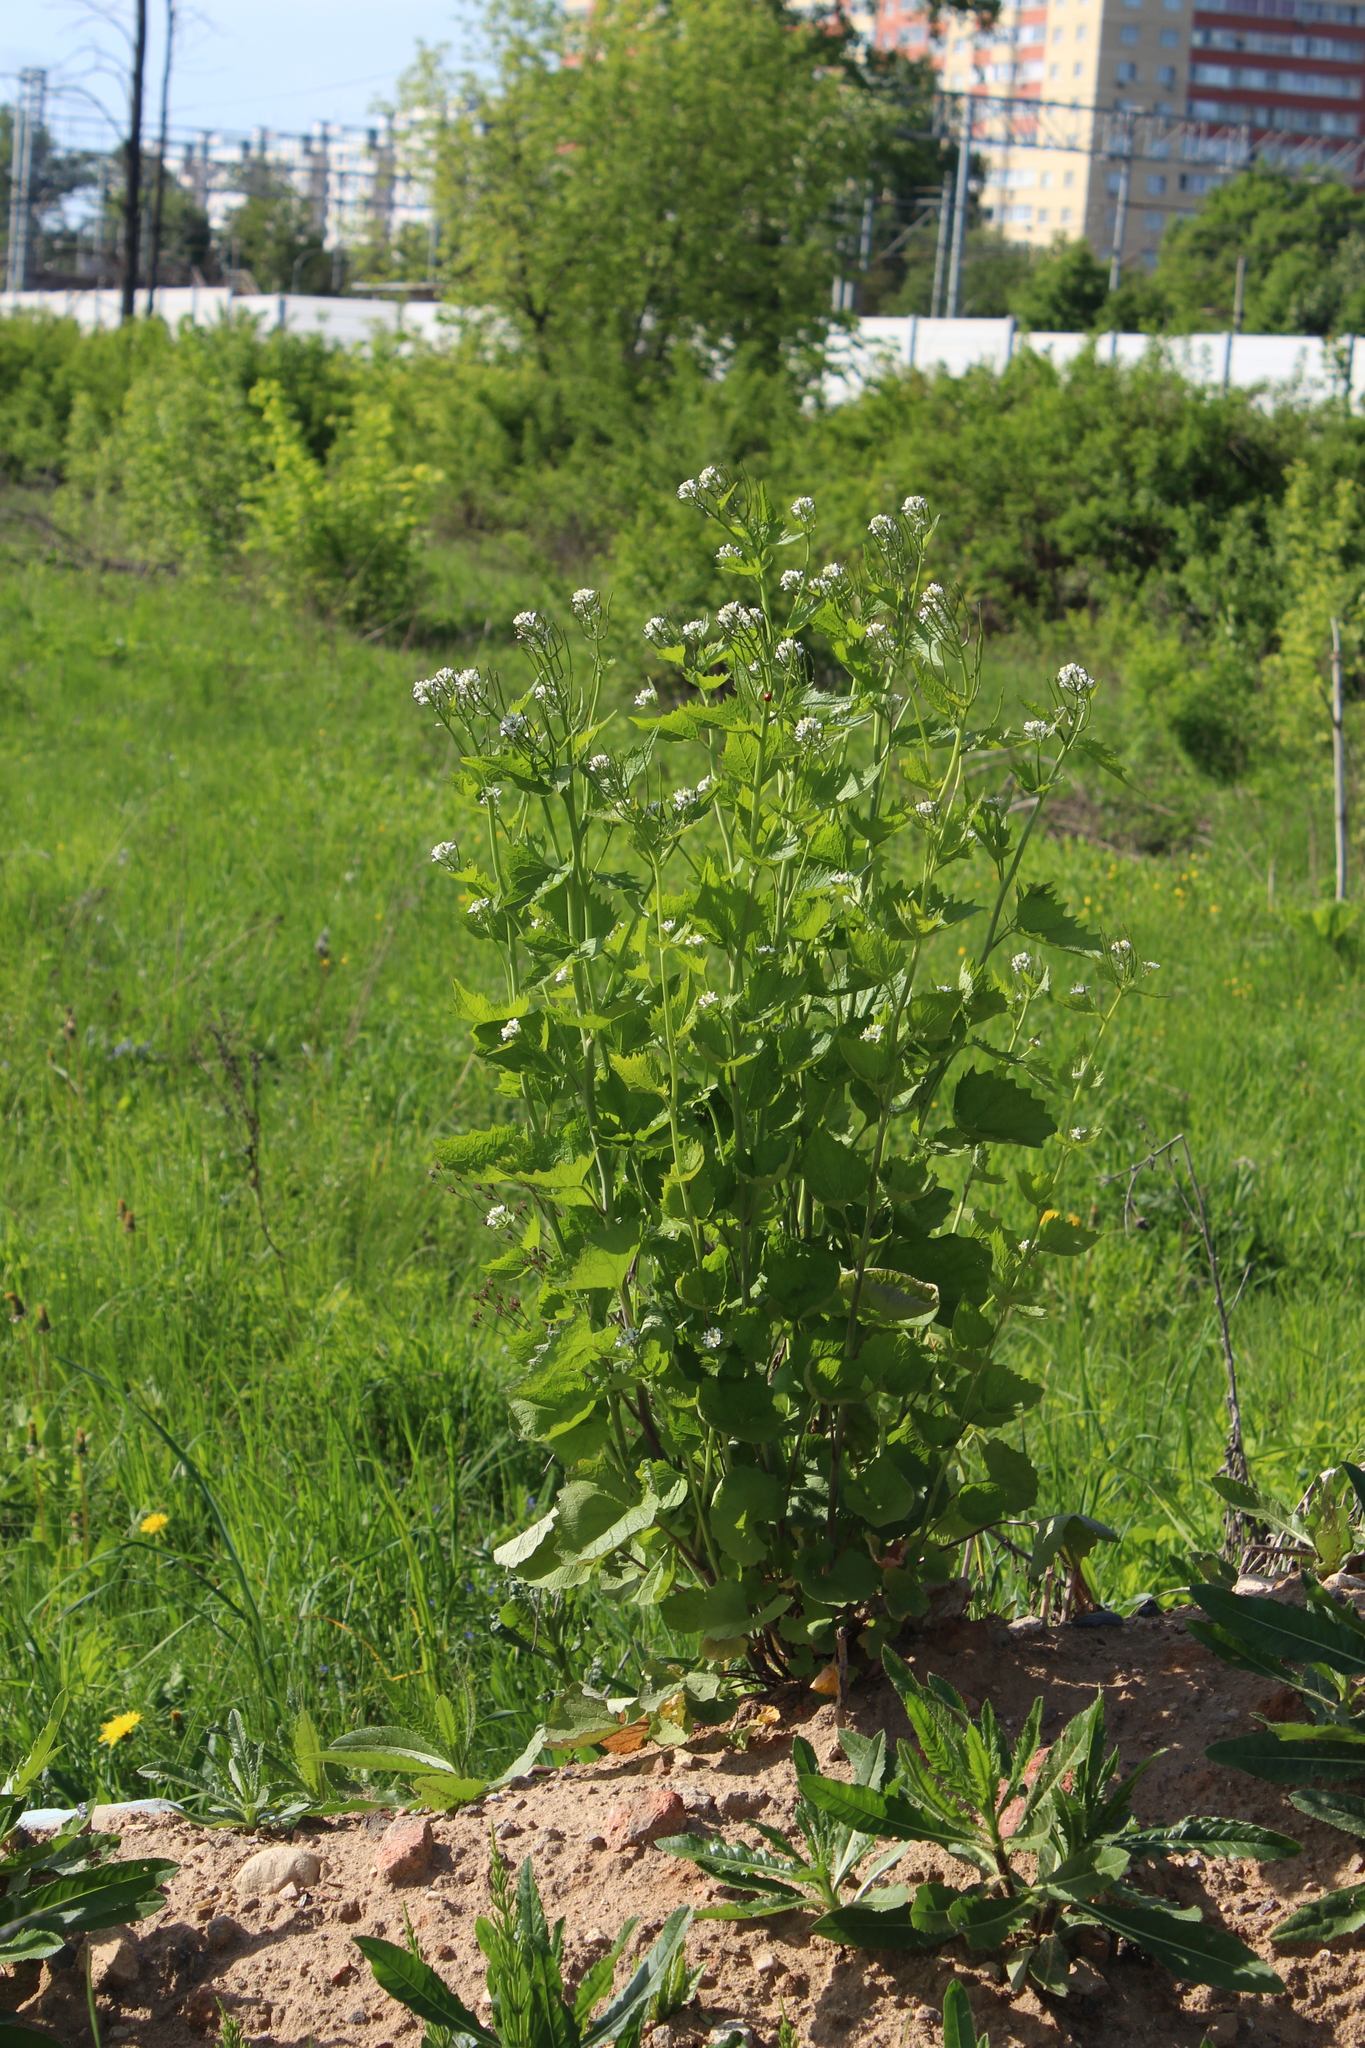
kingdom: Plantae
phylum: Tracheophyta
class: Magnoliopsida
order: Brassicales
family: Brassicaceae
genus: Alliaria
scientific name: Alliaria petiolata
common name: Garlic mustard
